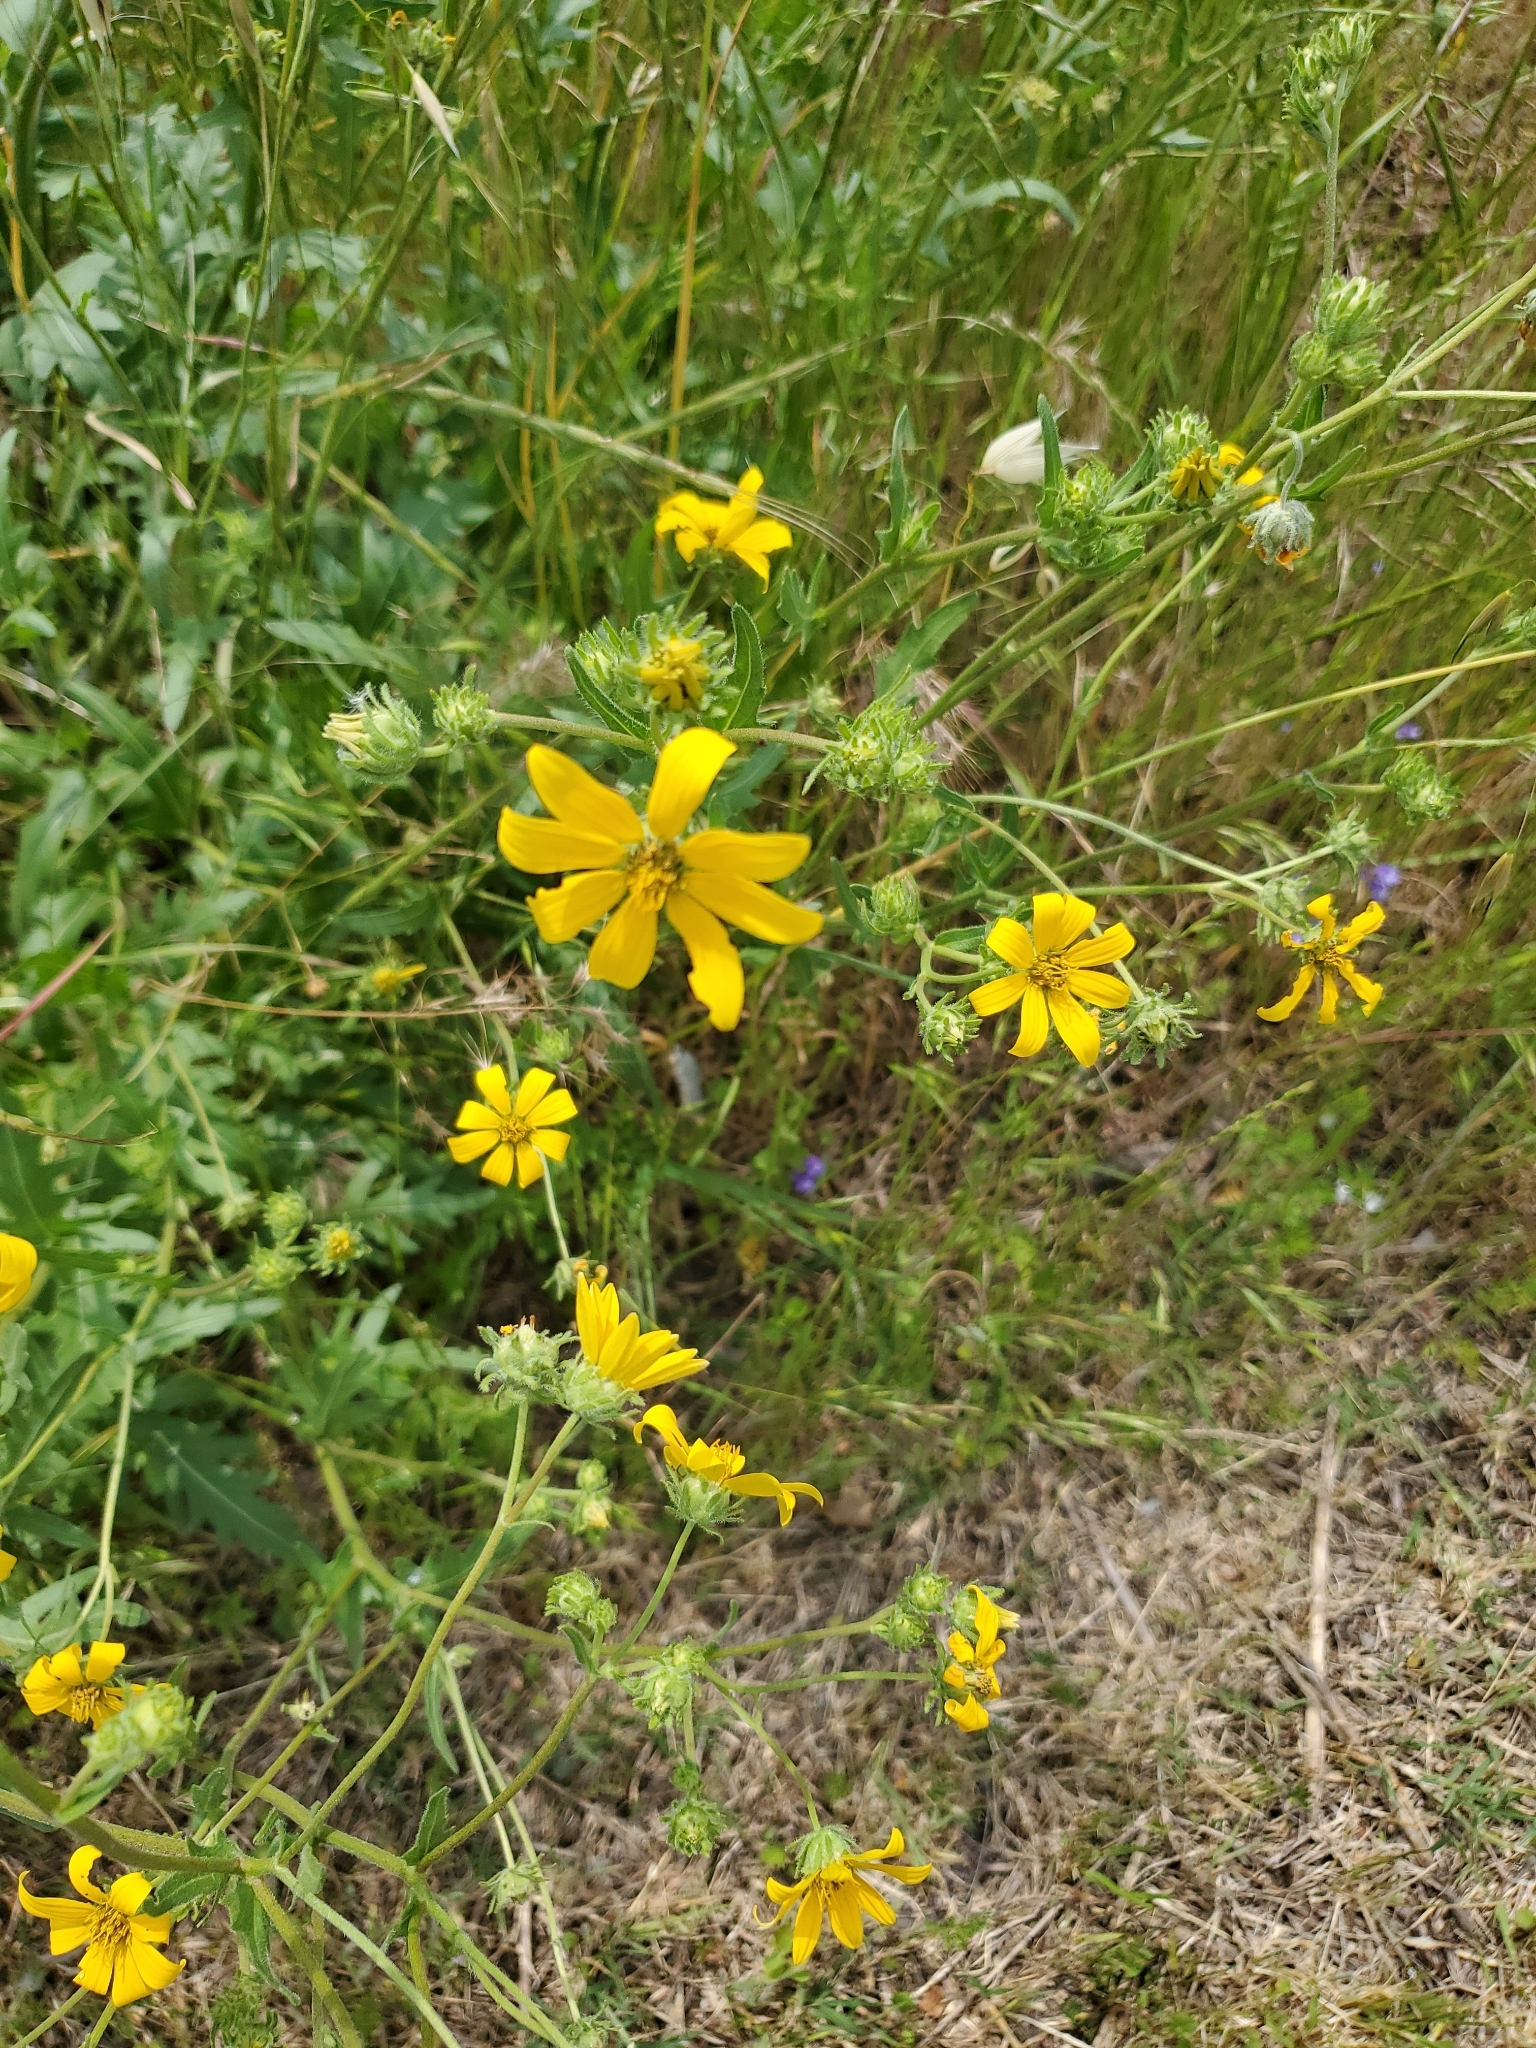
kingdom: Plantae
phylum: Tracheophyta
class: Magnoliopsida
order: Asterales
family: Asteraceae
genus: Engelmannia
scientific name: Engelmannia peristenia
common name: Engelmann's daisy
